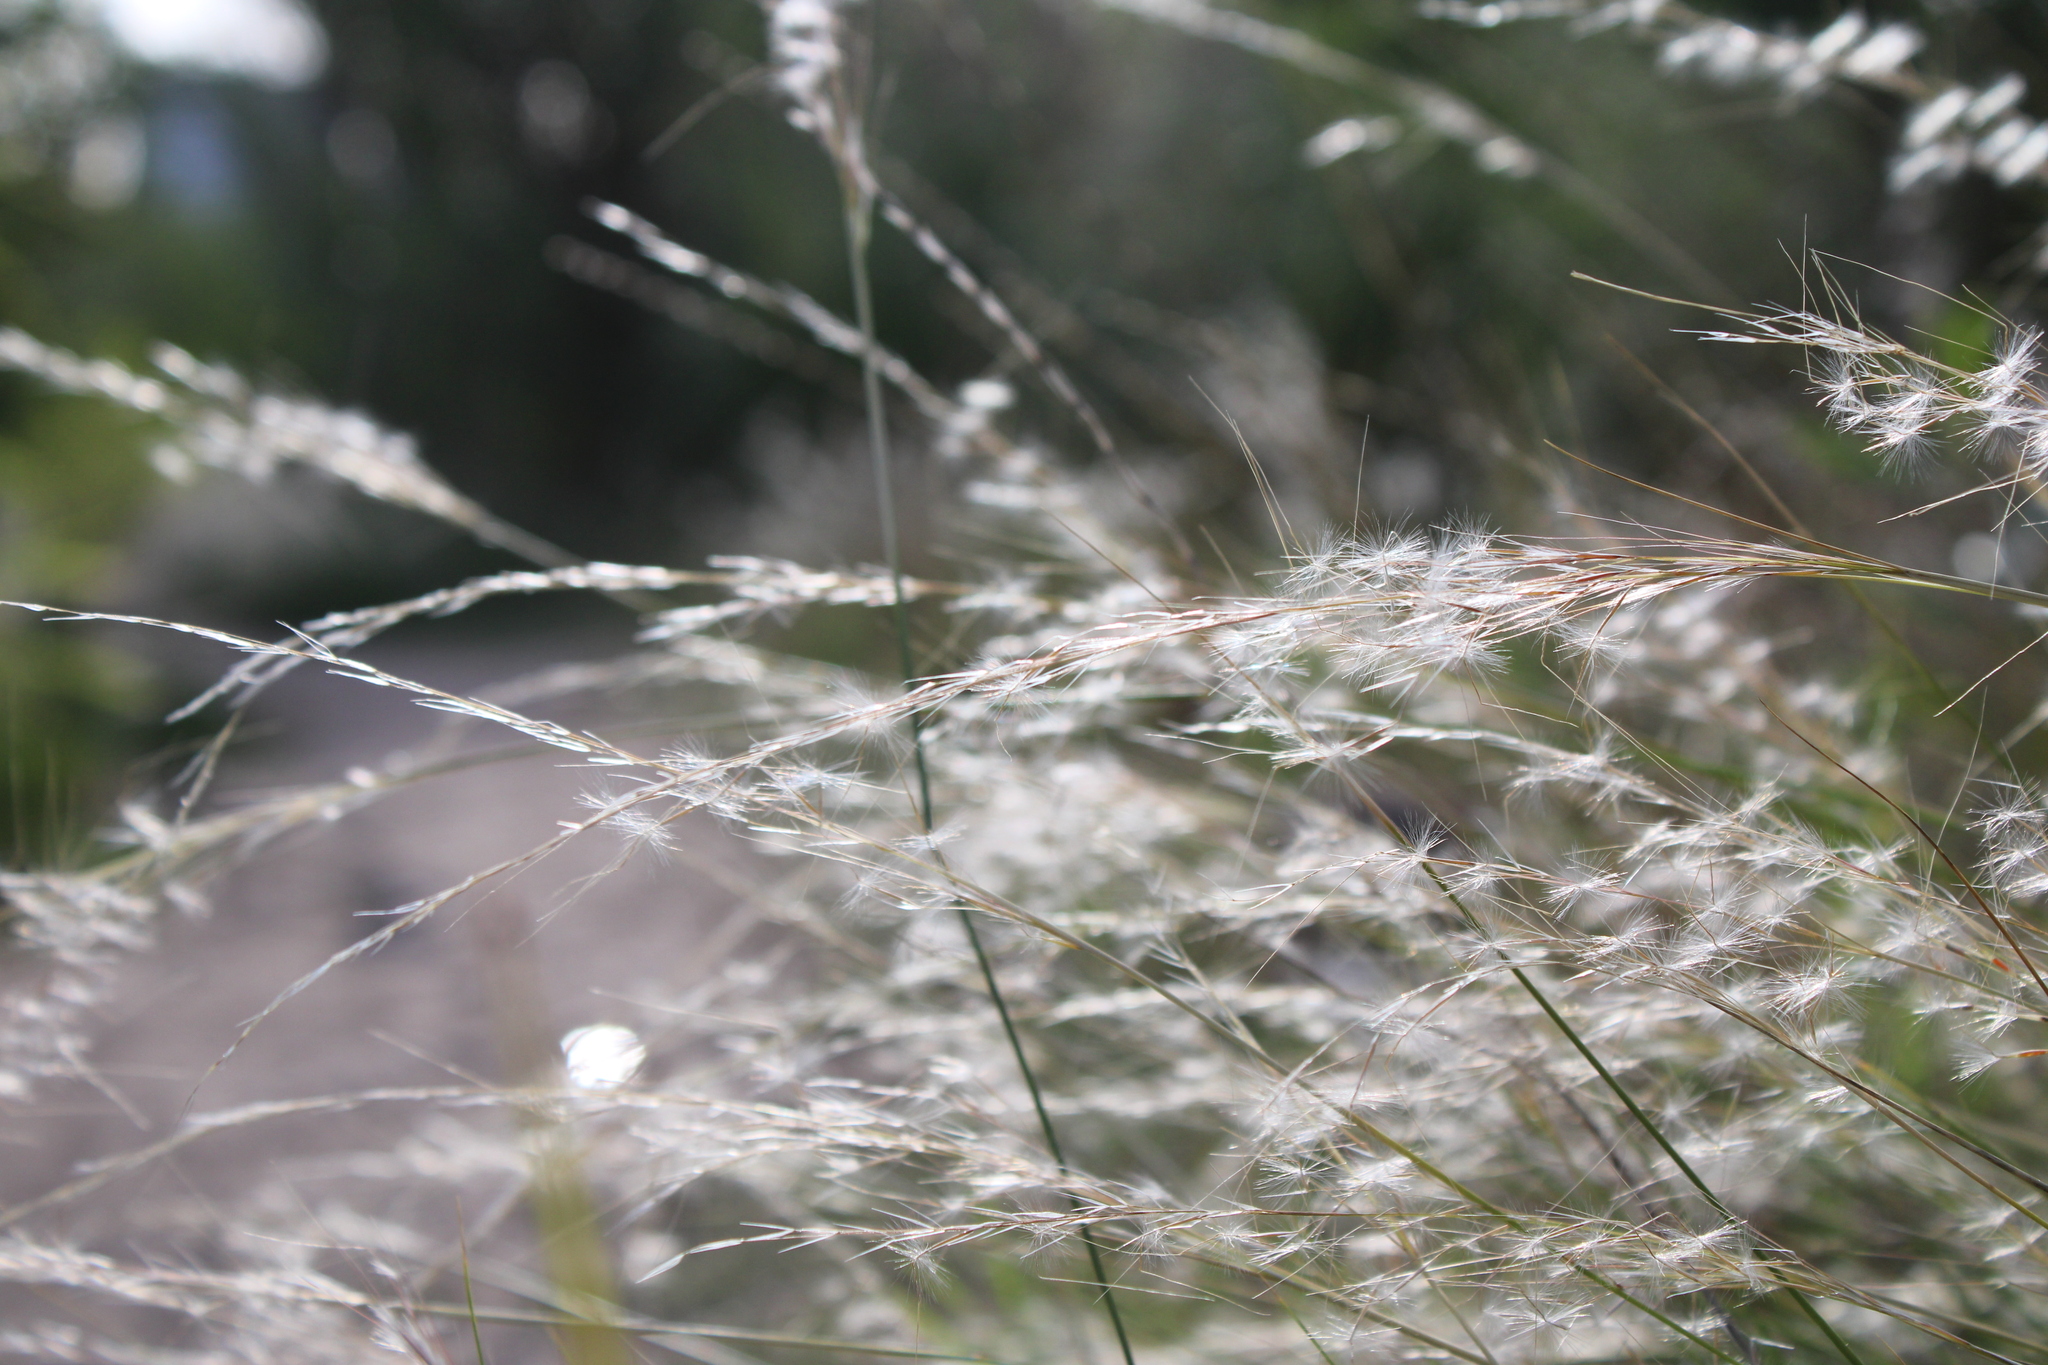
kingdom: Plantae
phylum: Tracheophyta
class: Liliopsida
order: Poales
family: Poaceae
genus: Jarava
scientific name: Jarava plumosa
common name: South american rice grass
